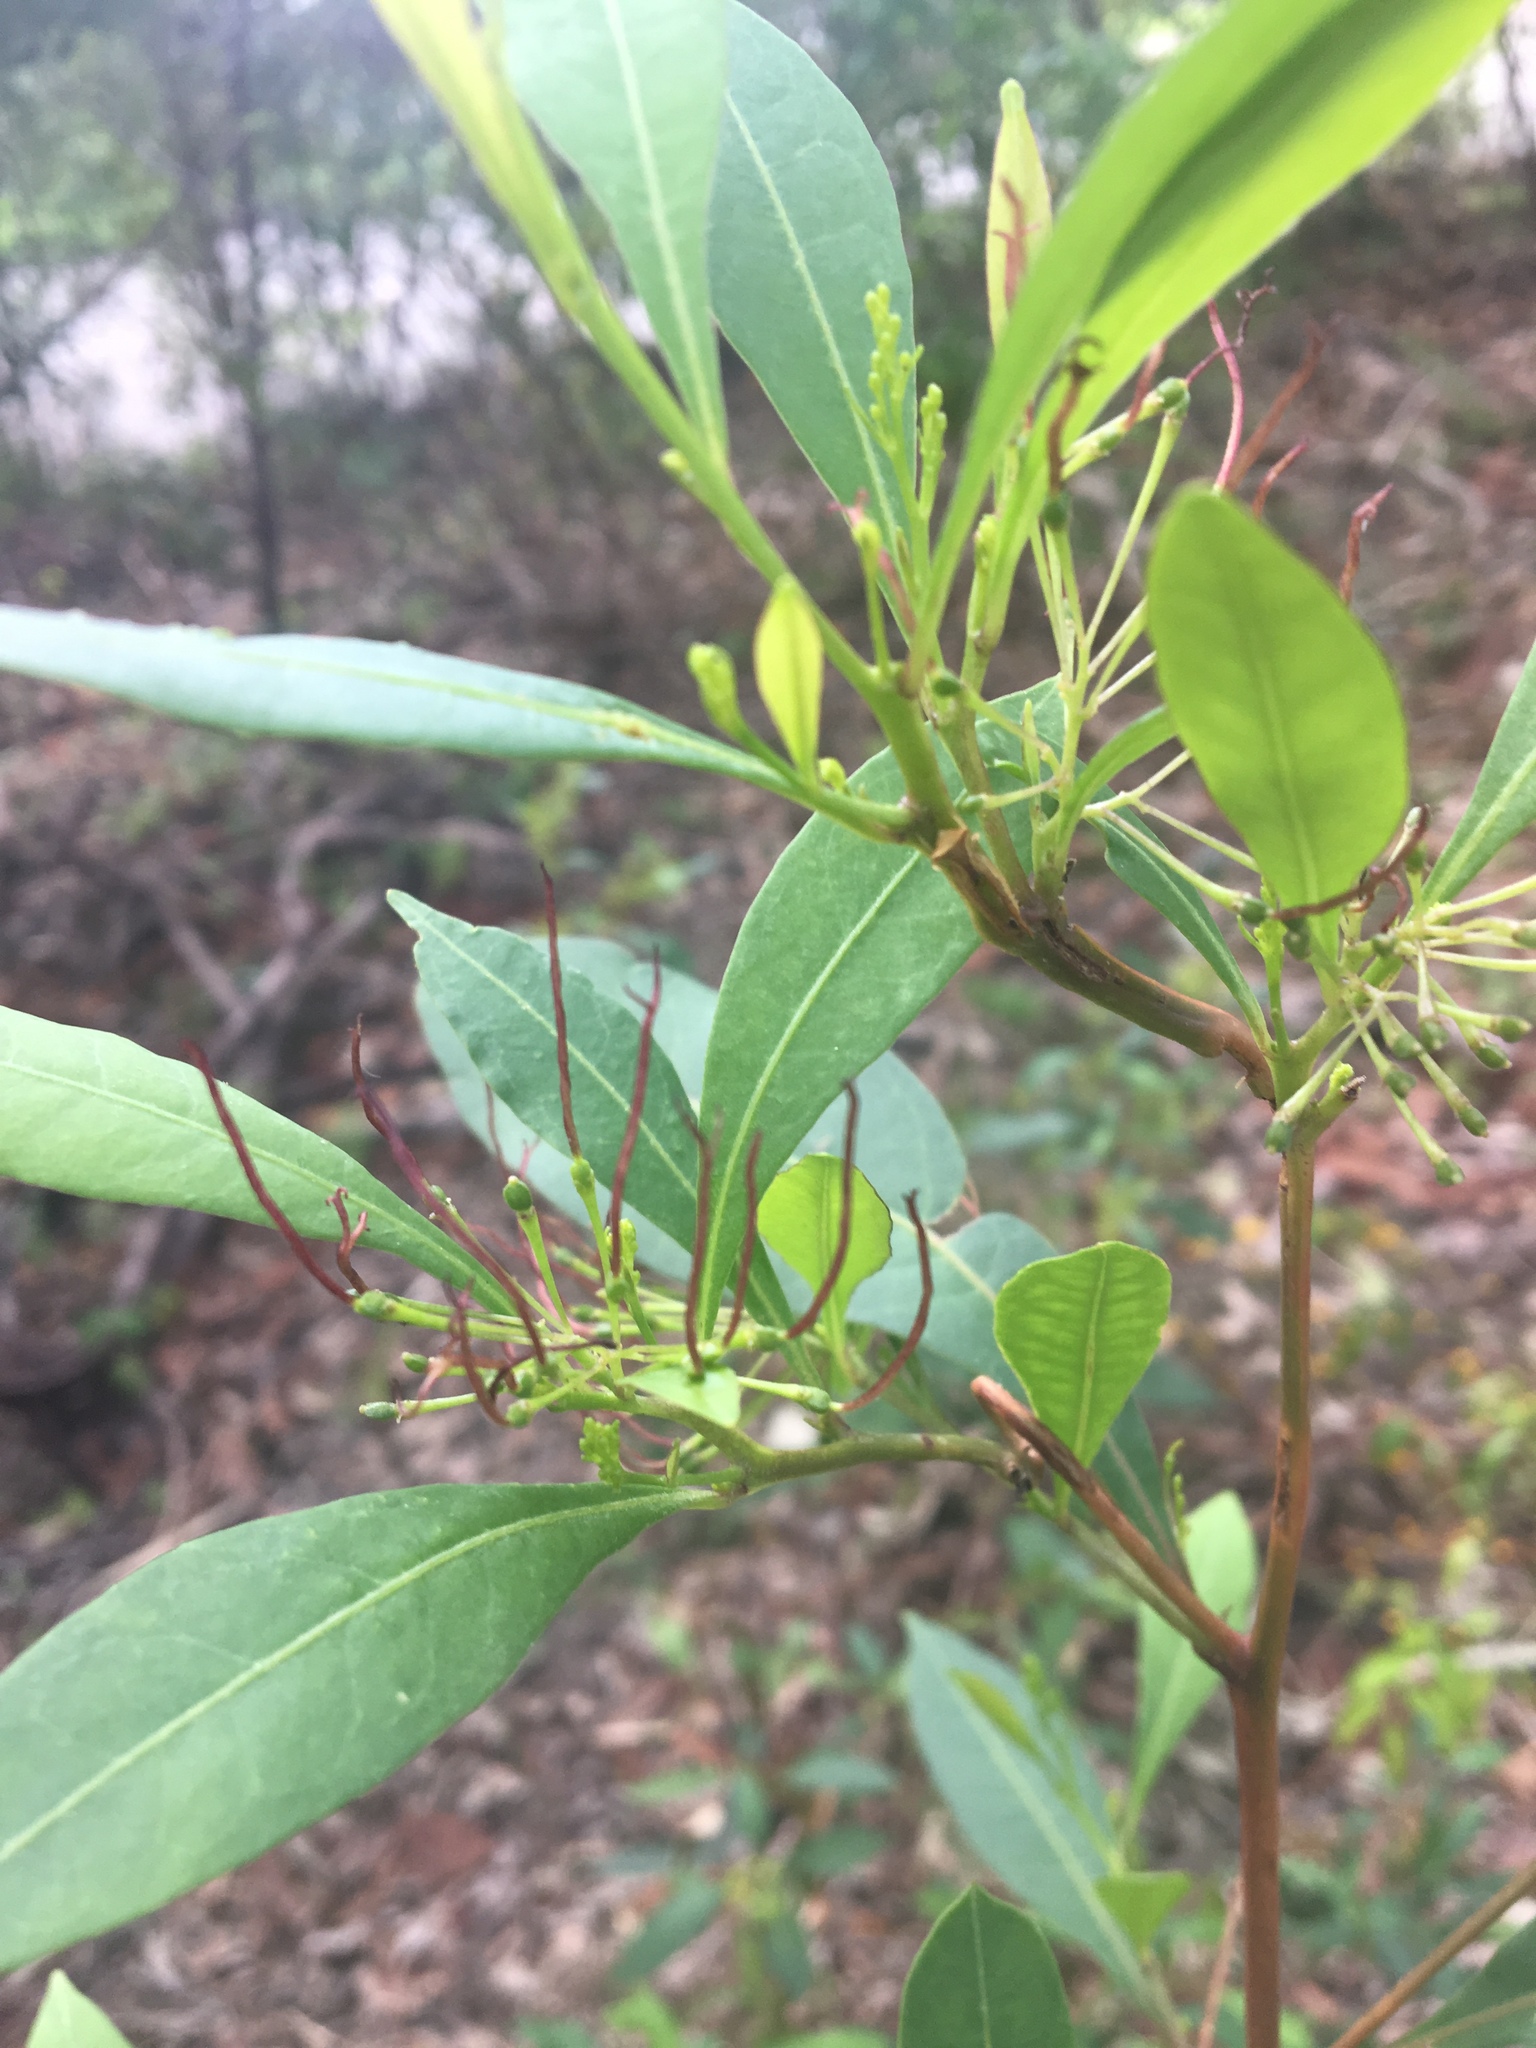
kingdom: Plantae
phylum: Tracheophyta
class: Magnoliopsida
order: Sapindales
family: Sapindaceae
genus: Dodonaea
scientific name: Dodonaea triquetra
